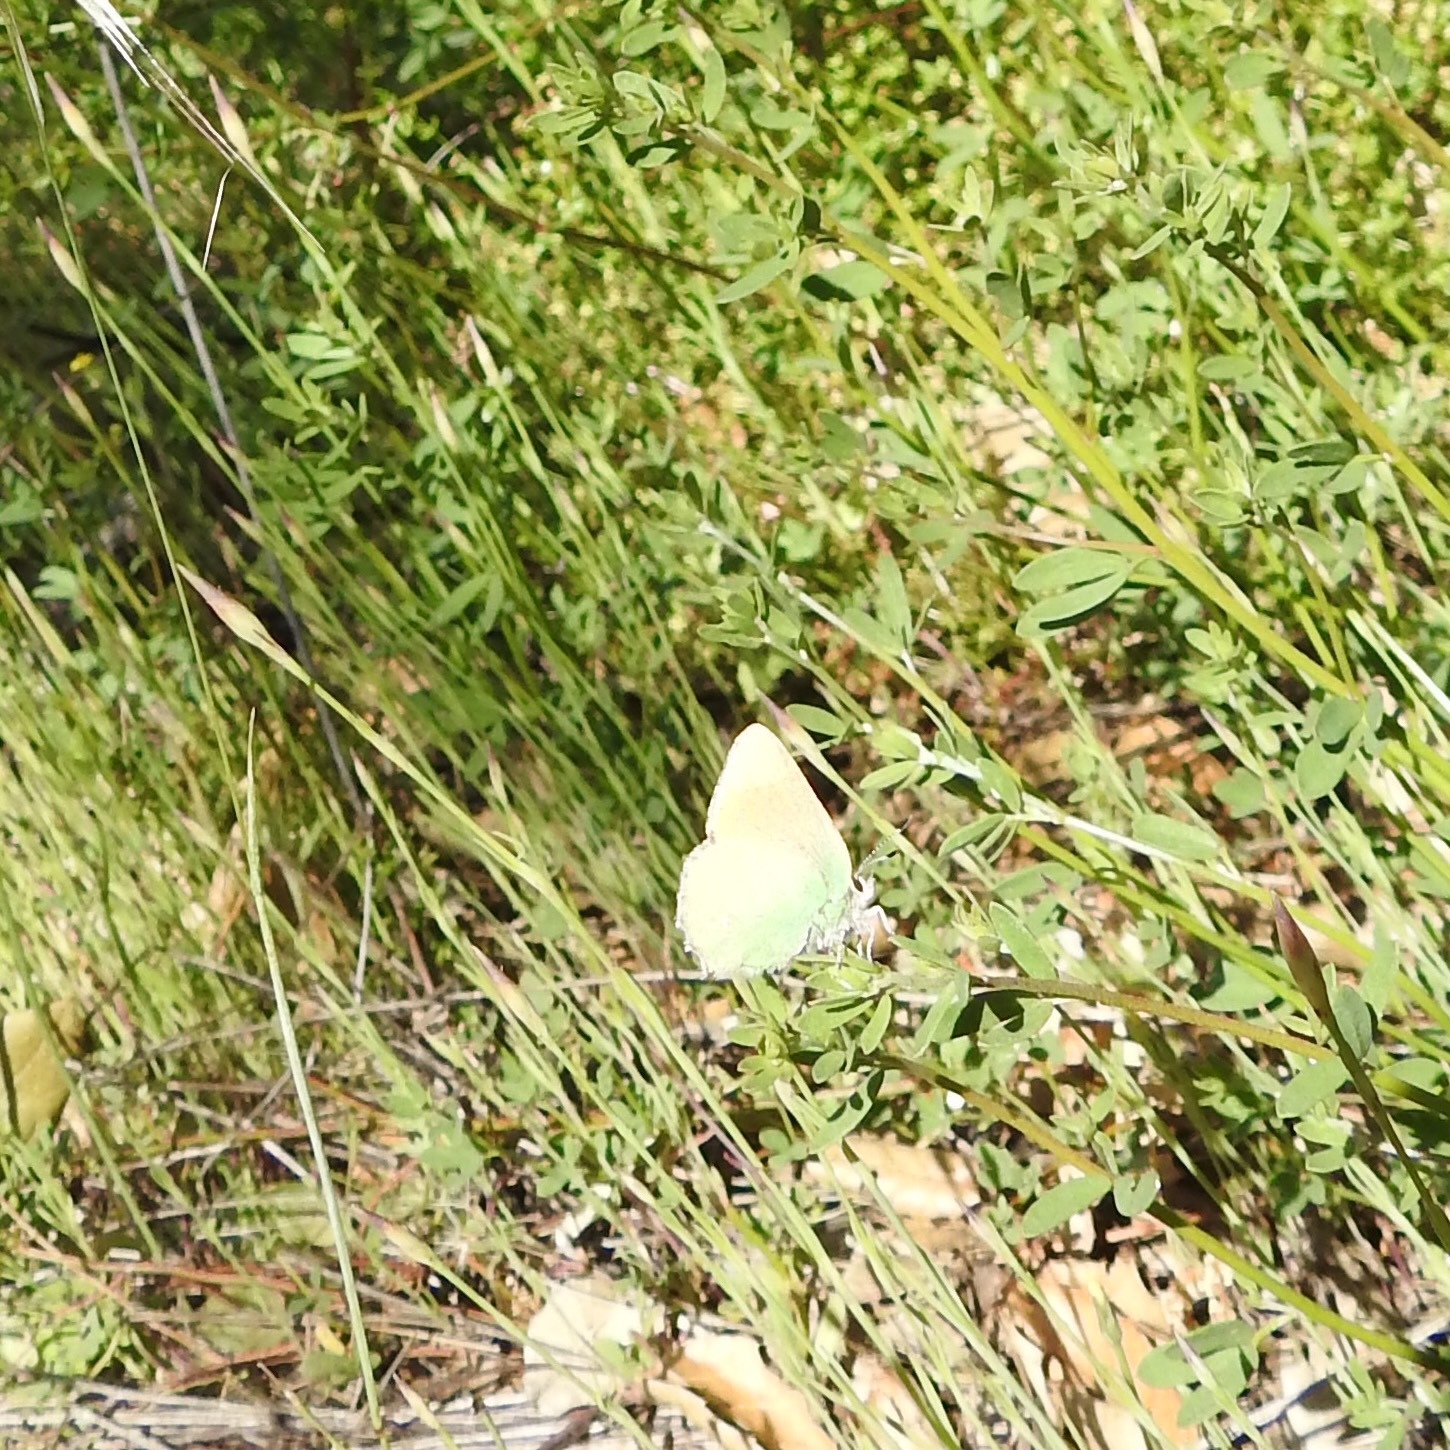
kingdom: Animalia
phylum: Arthropoda
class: Insecta
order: Lepidoptera
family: Lycaenidae
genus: Callophrys
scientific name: Callophrys dumetorum
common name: Bramble hairstreak
